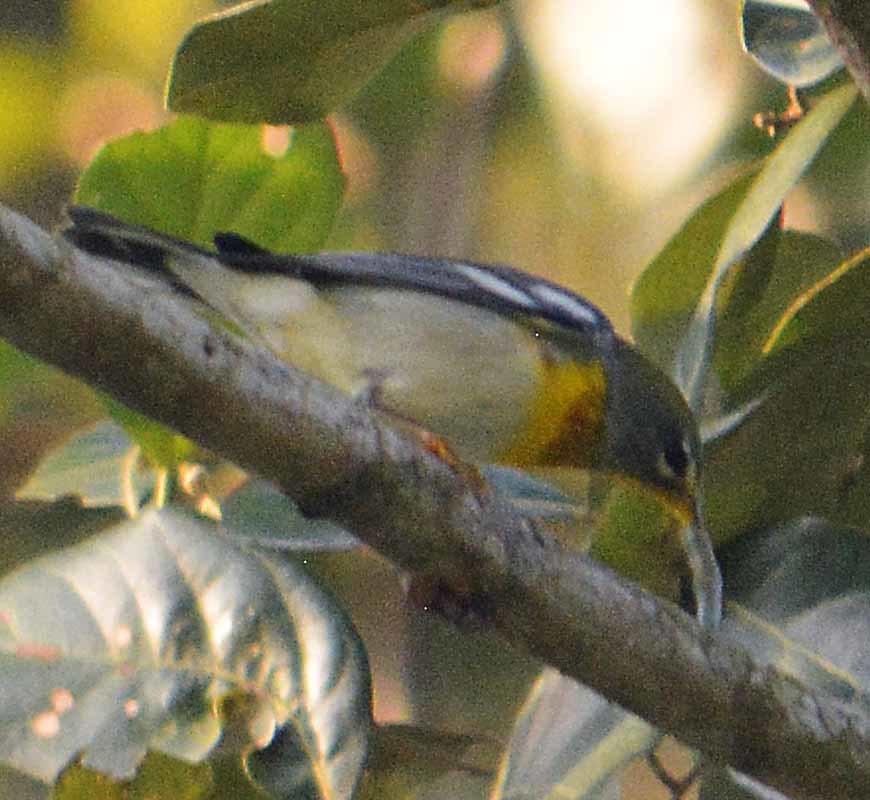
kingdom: Animalia
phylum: Chordata
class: Aves
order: Passeriformes
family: Parulidae
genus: Setophaga
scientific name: Setophaga americana
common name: Northern parula
